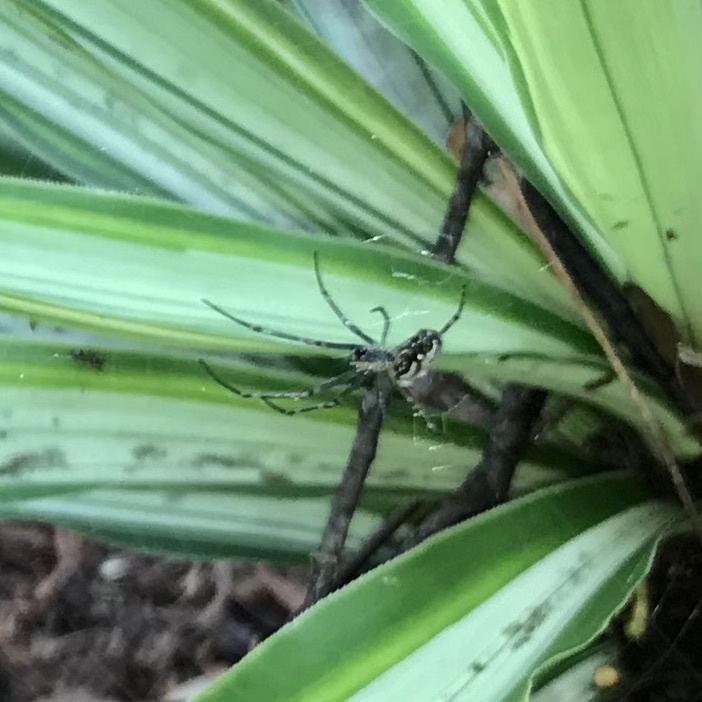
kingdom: Animalia
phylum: Arthropoda
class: Arachnida
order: Araneae
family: Tetragnathidae
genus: Leucauge
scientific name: Leucauge dromedaria
